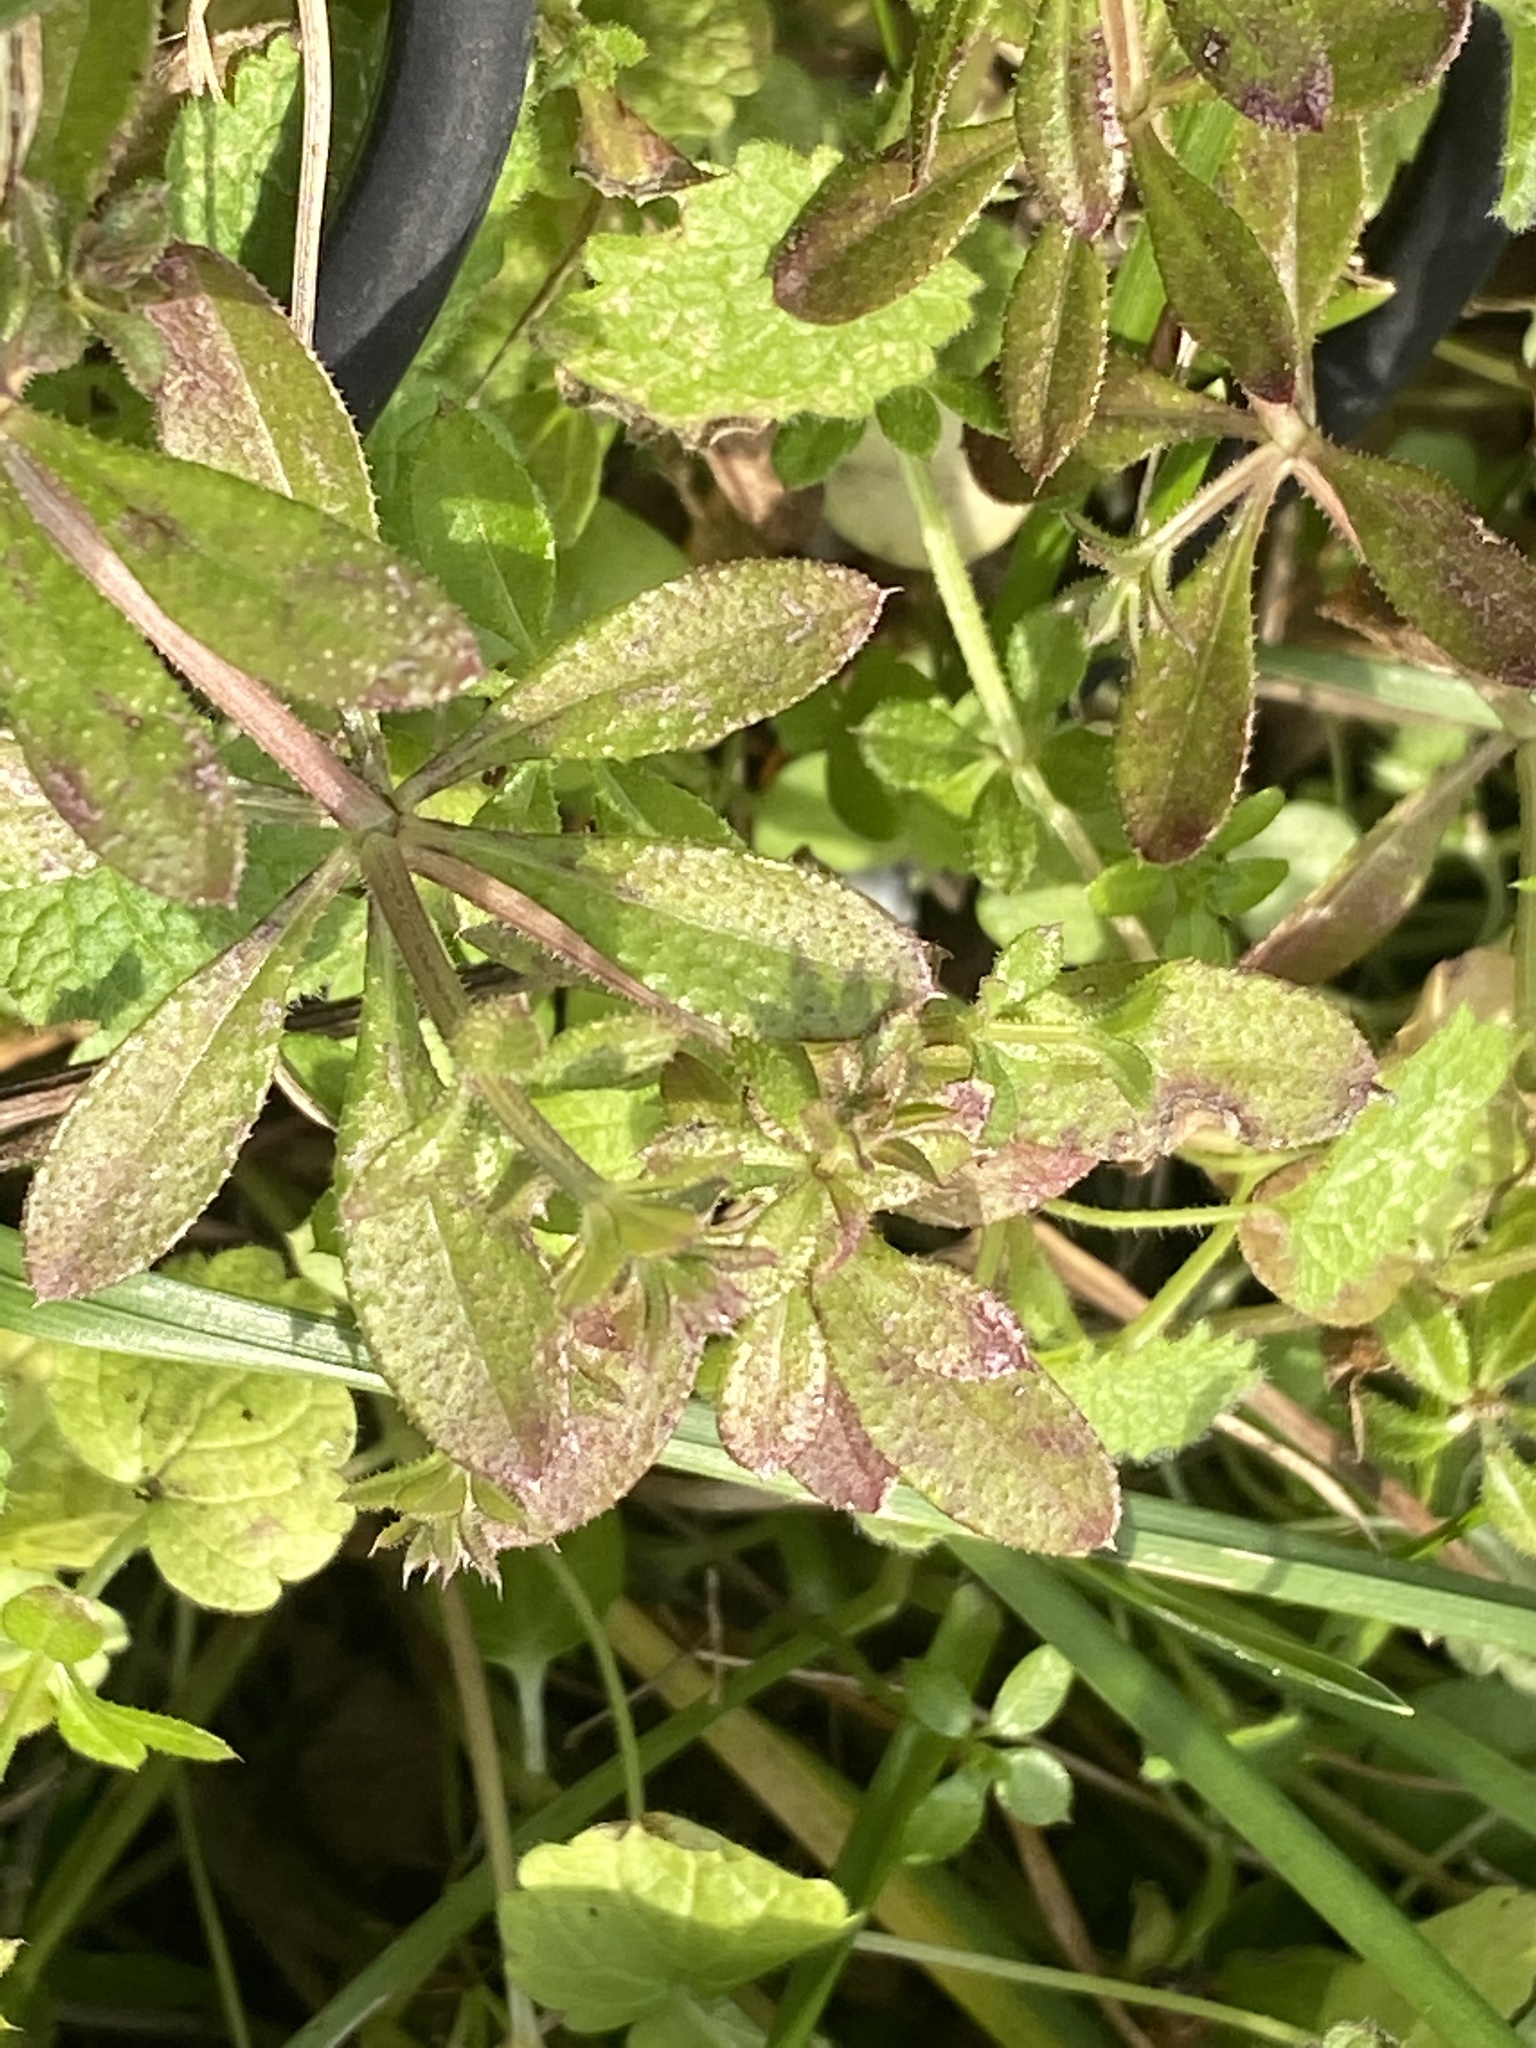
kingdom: Plantae
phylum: Tracheophyta
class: Magnoliopsida
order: Gentianales
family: Rubiaceae
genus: Galium
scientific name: Galium aparine
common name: Cleavers
